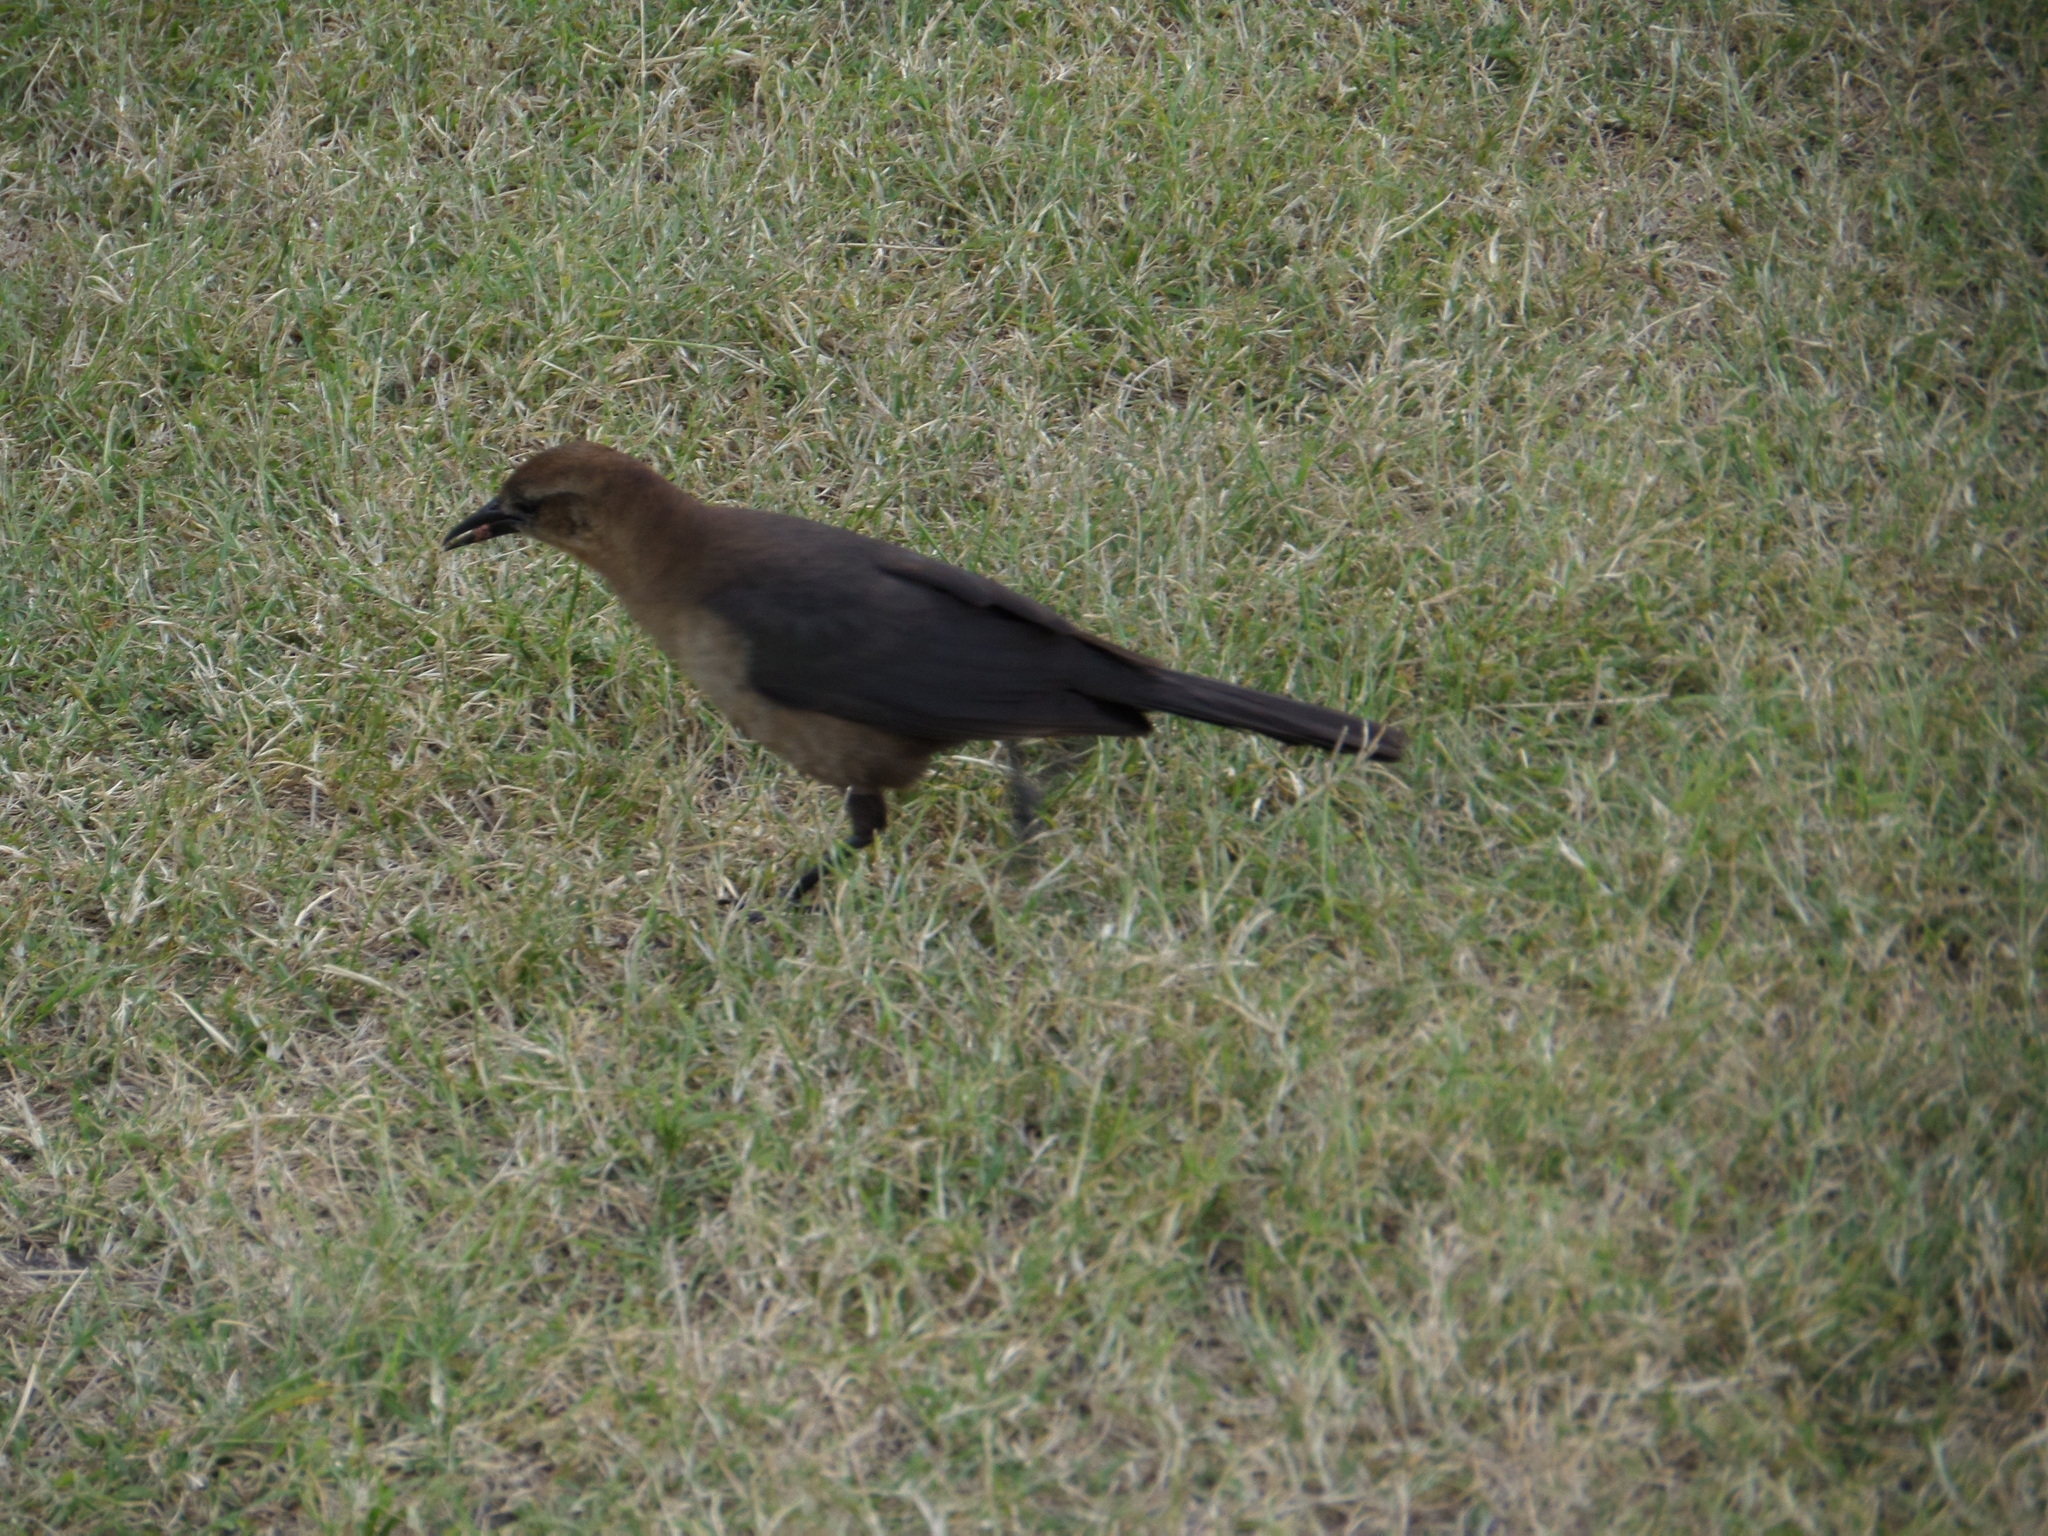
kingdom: Animalia
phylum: Chordata
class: Aves
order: Passeriformes
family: Icteridae
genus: Quiscalus
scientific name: Quiscalus major
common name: Boat-tailed grackle
